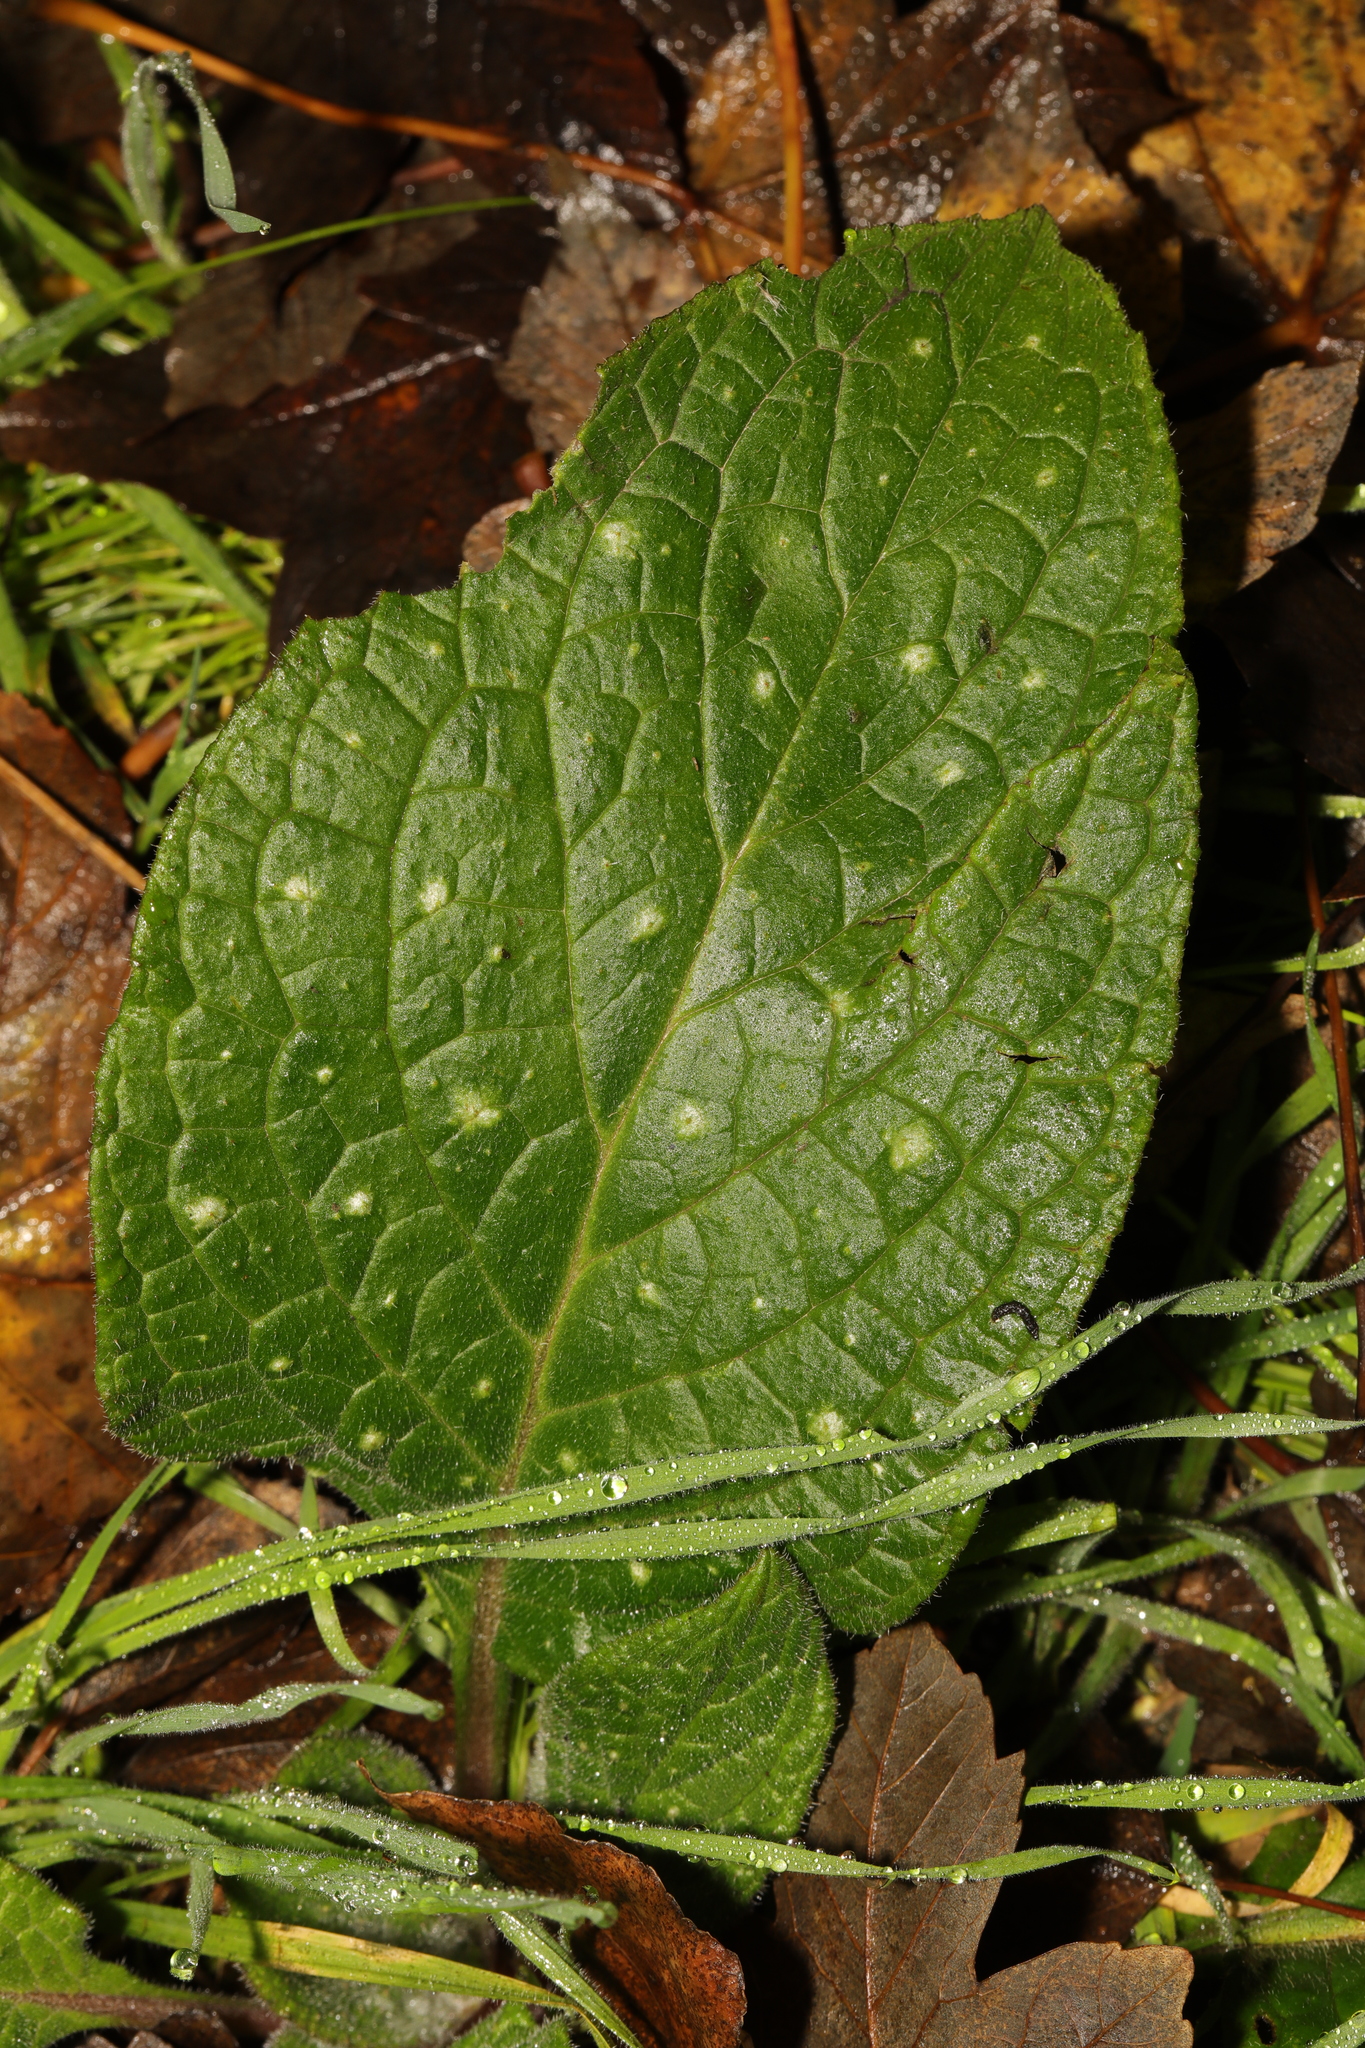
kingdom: Plantae
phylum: Tracheophyta
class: Magnoliopsida
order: Boraginales
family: Boraginaceae
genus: Pentaglottis
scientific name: Pentaglottis sempervirens
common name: Green alkanet
